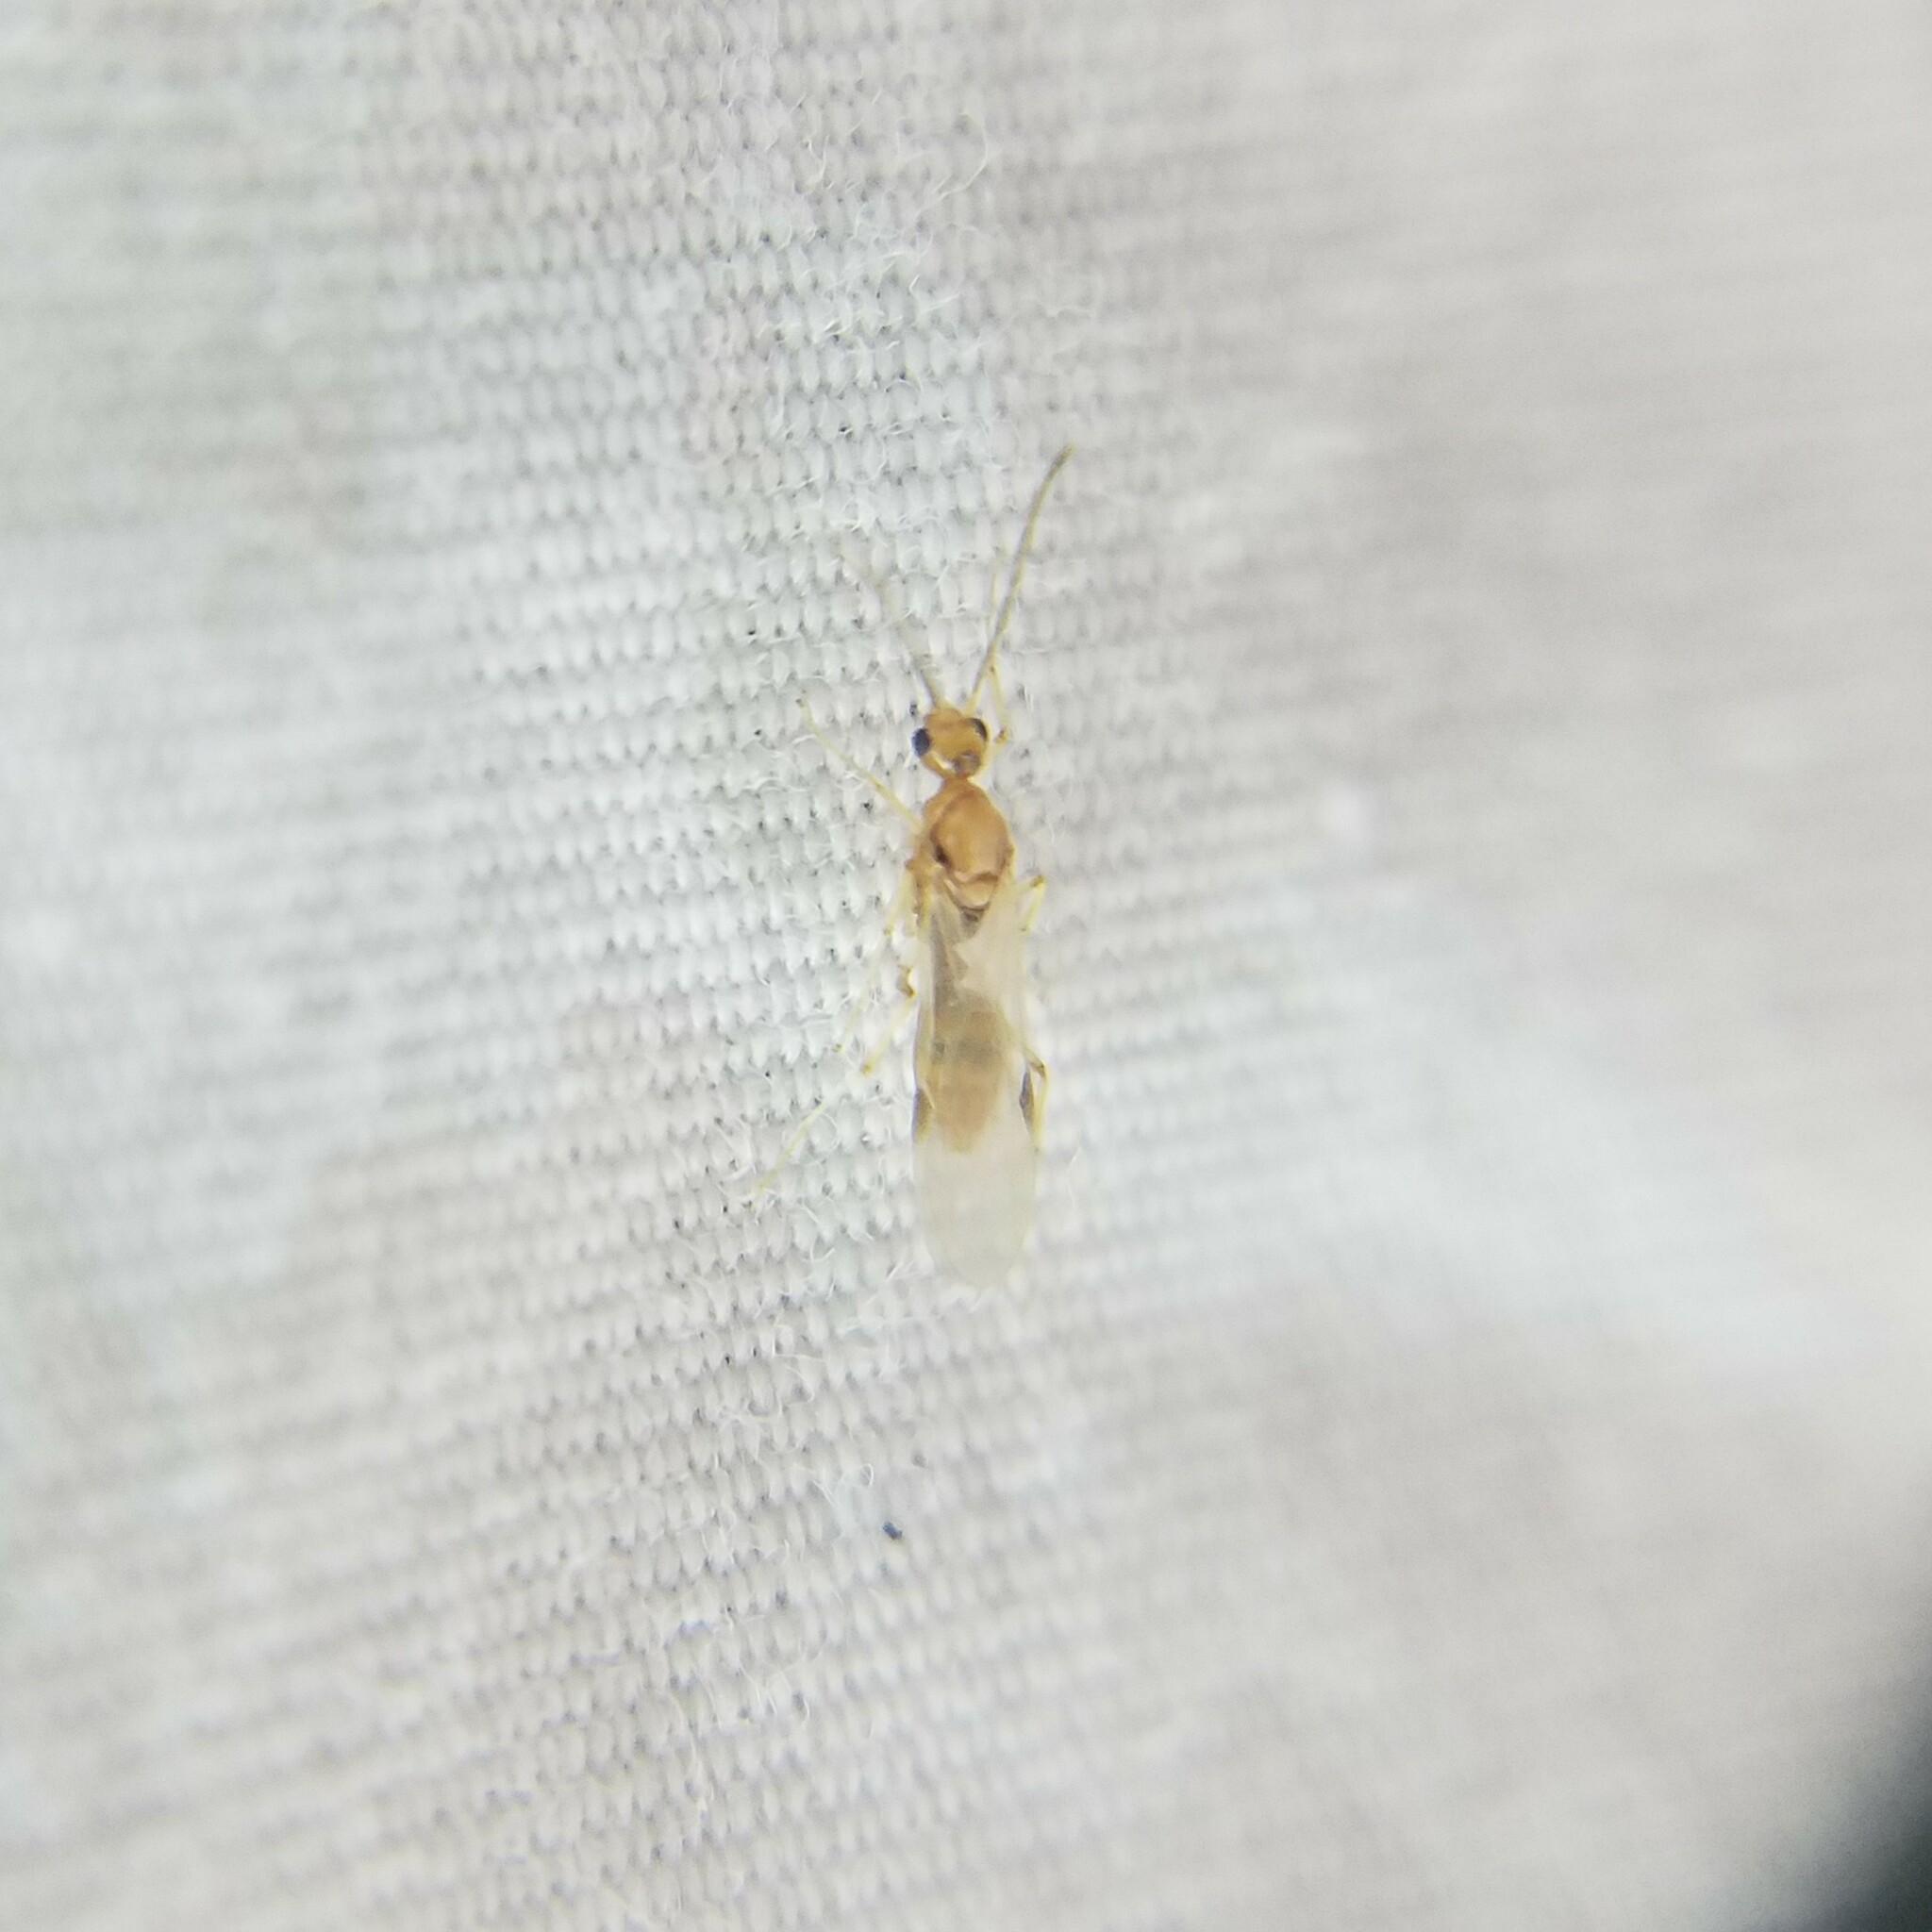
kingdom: Animalia
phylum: Arthropoda
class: Insecta
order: Hymenoptera
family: Formicidae
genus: Pachycondyla
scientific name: Pachycondyla chinensis
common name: Asian needle ant
